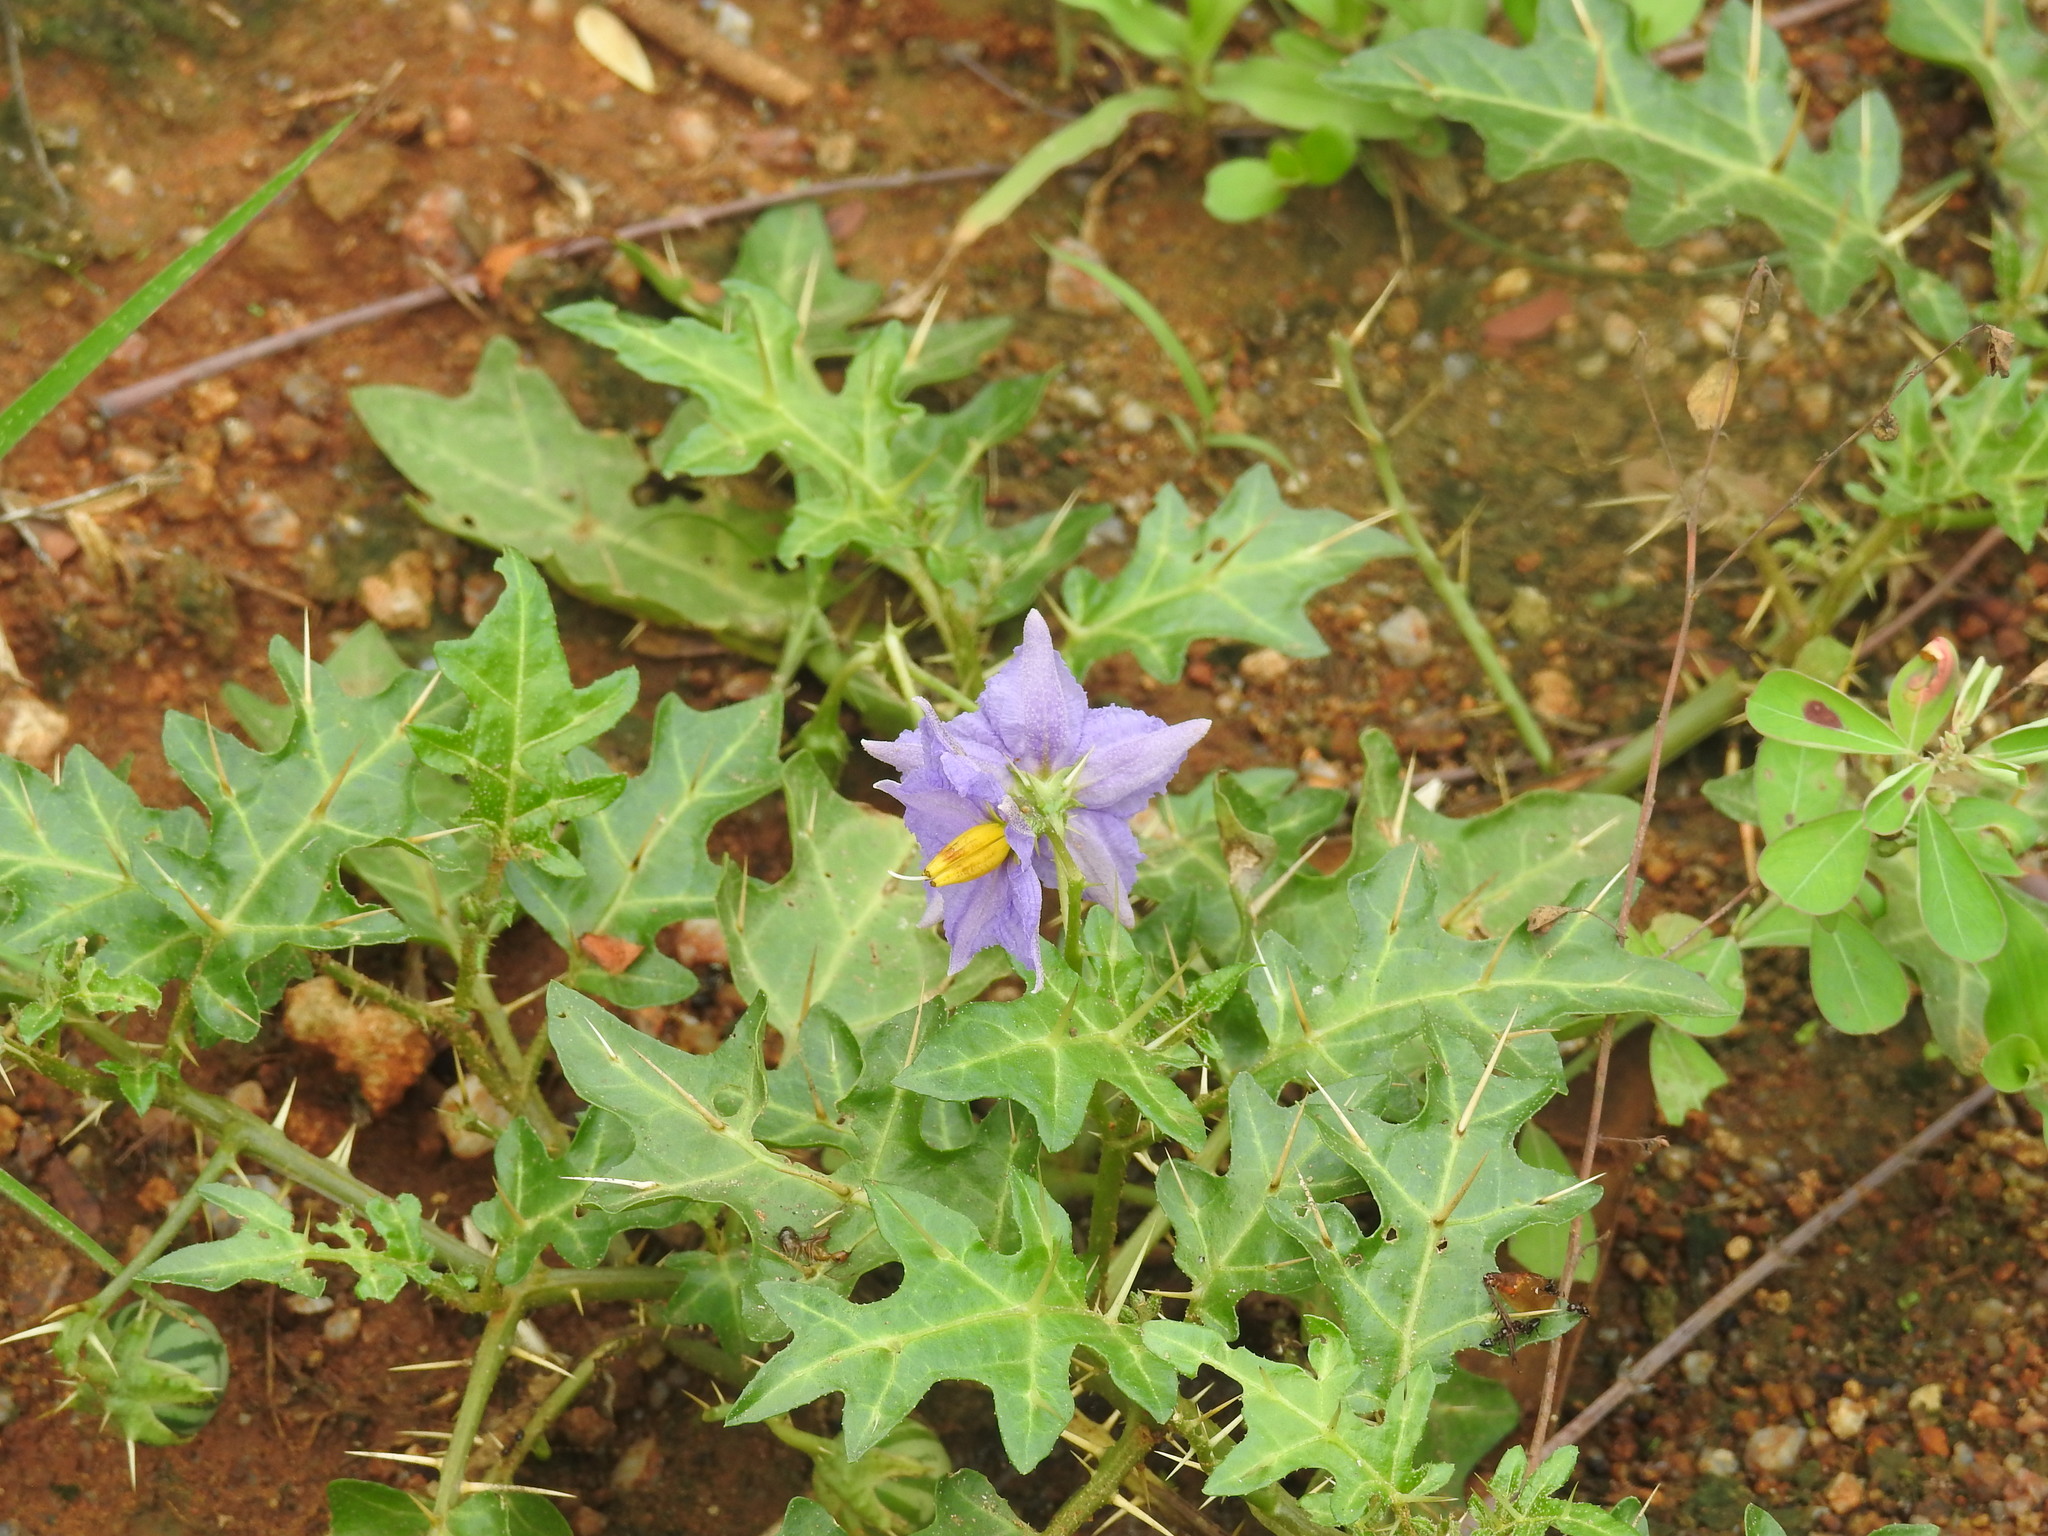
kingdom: Plantae
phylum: Tracheophyta
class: Magnoliopsida
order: Solanales
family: Solanaceae
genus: Solanum
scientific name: Solanum virginianum
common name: Surattense nightshade
